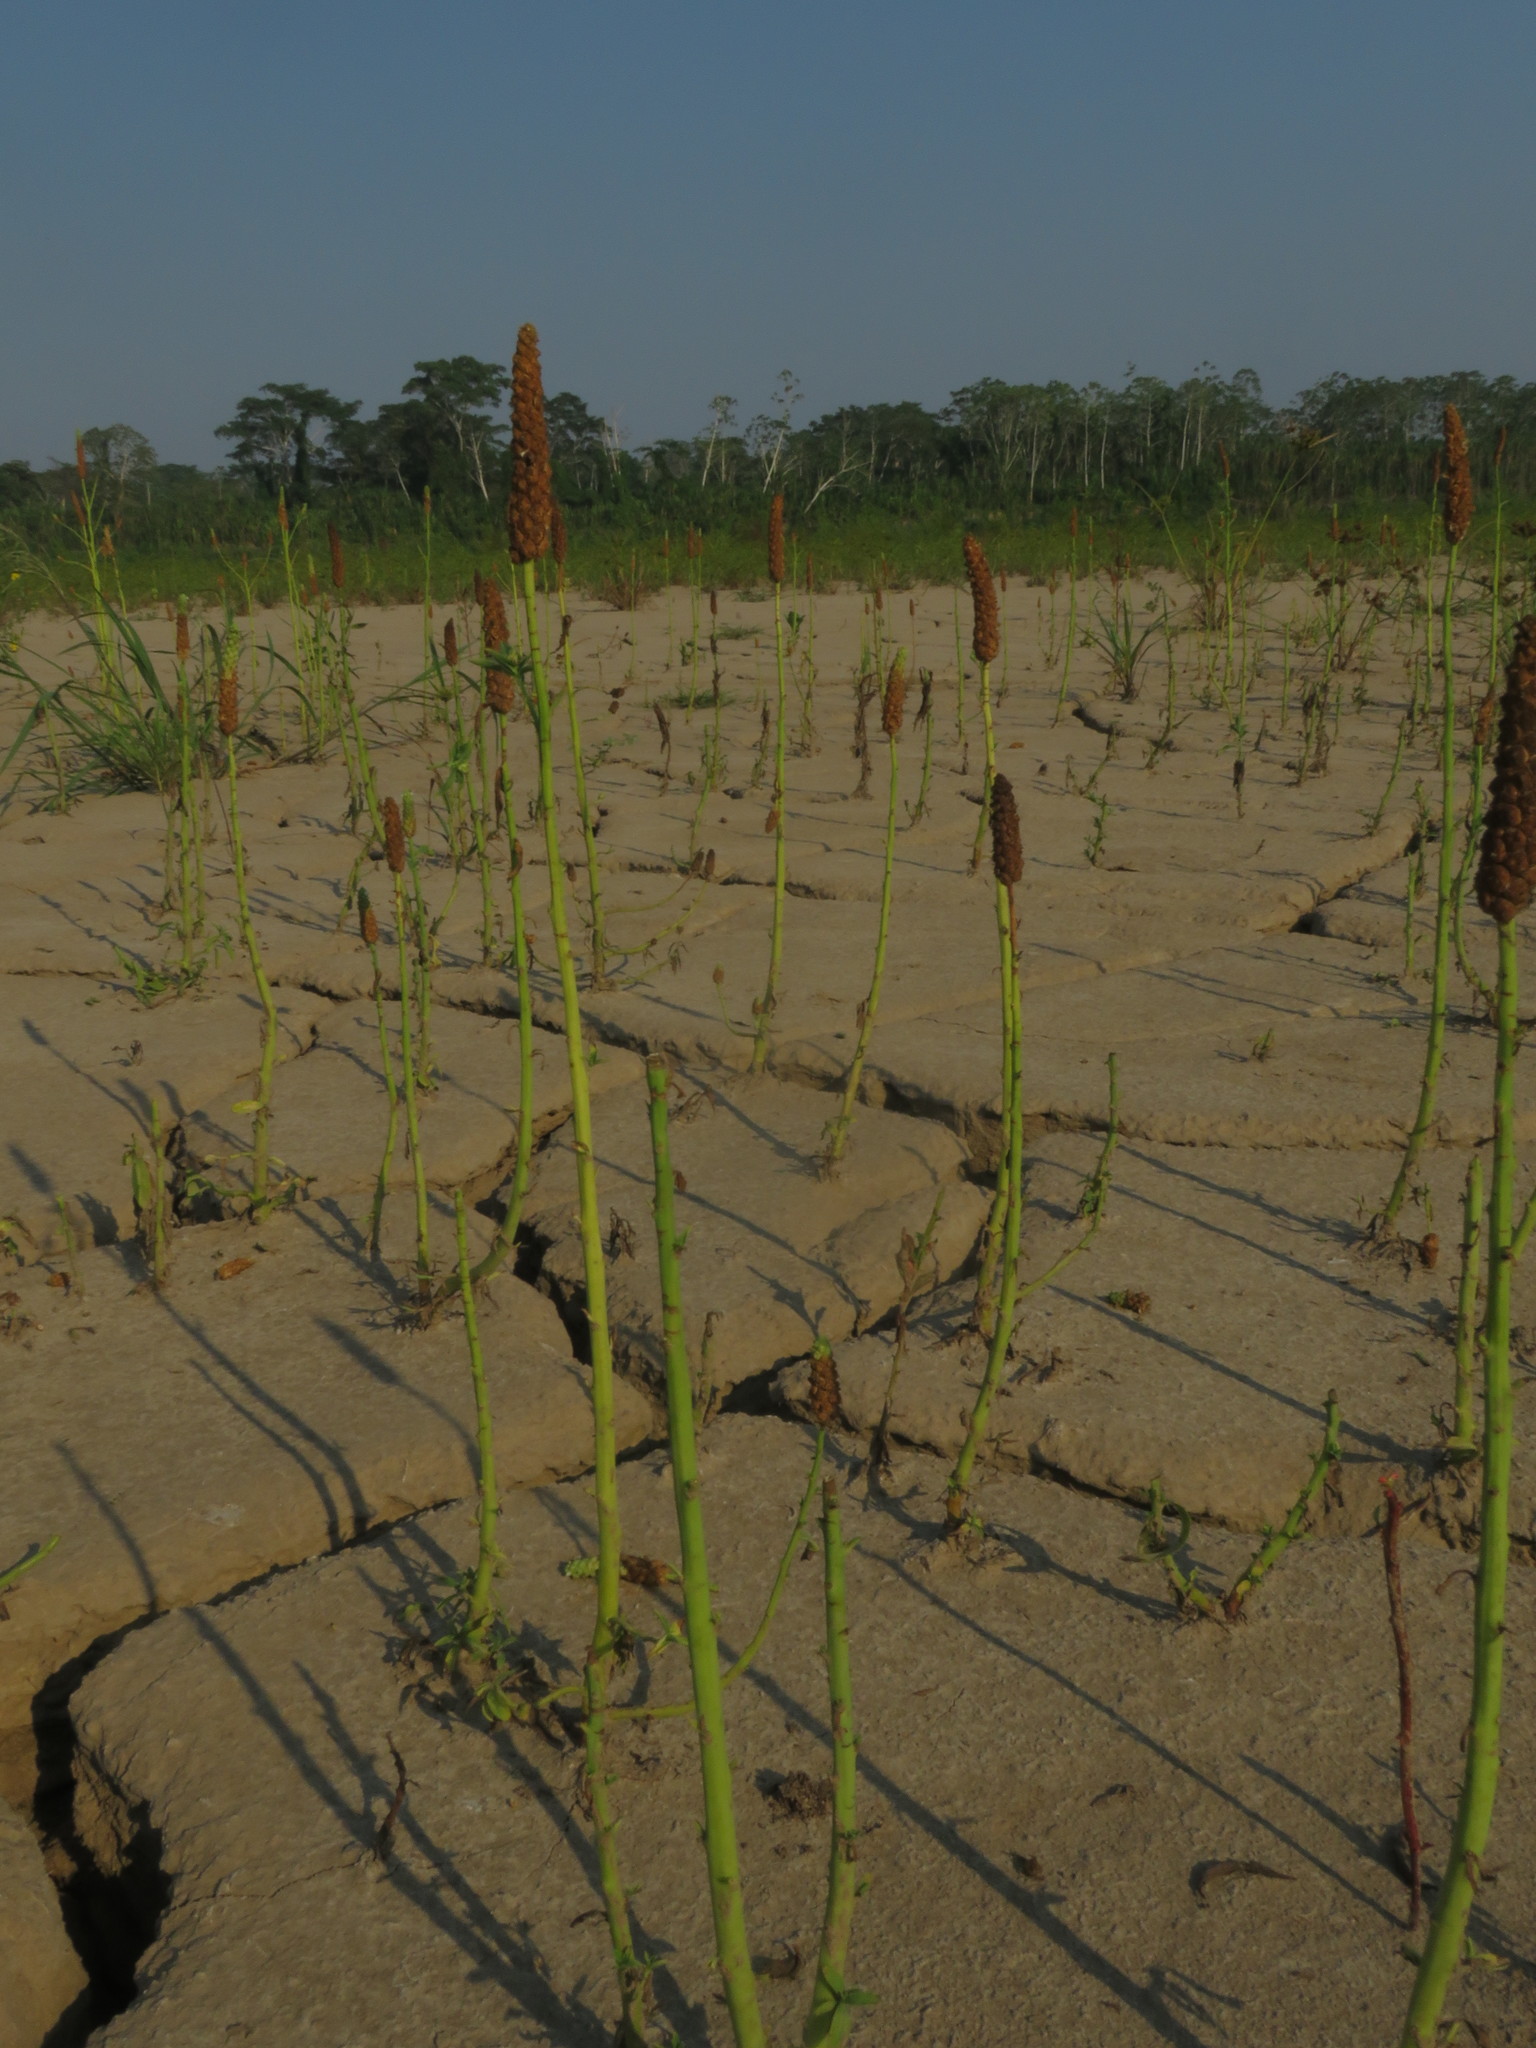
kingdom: Plantae
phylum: Tracheophyta
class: Magnoliopsida
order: Solanales
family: Sphenocleaceae
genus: Sphenoclea
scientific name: Sphenoclea zeylanica
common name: Chickenspike
